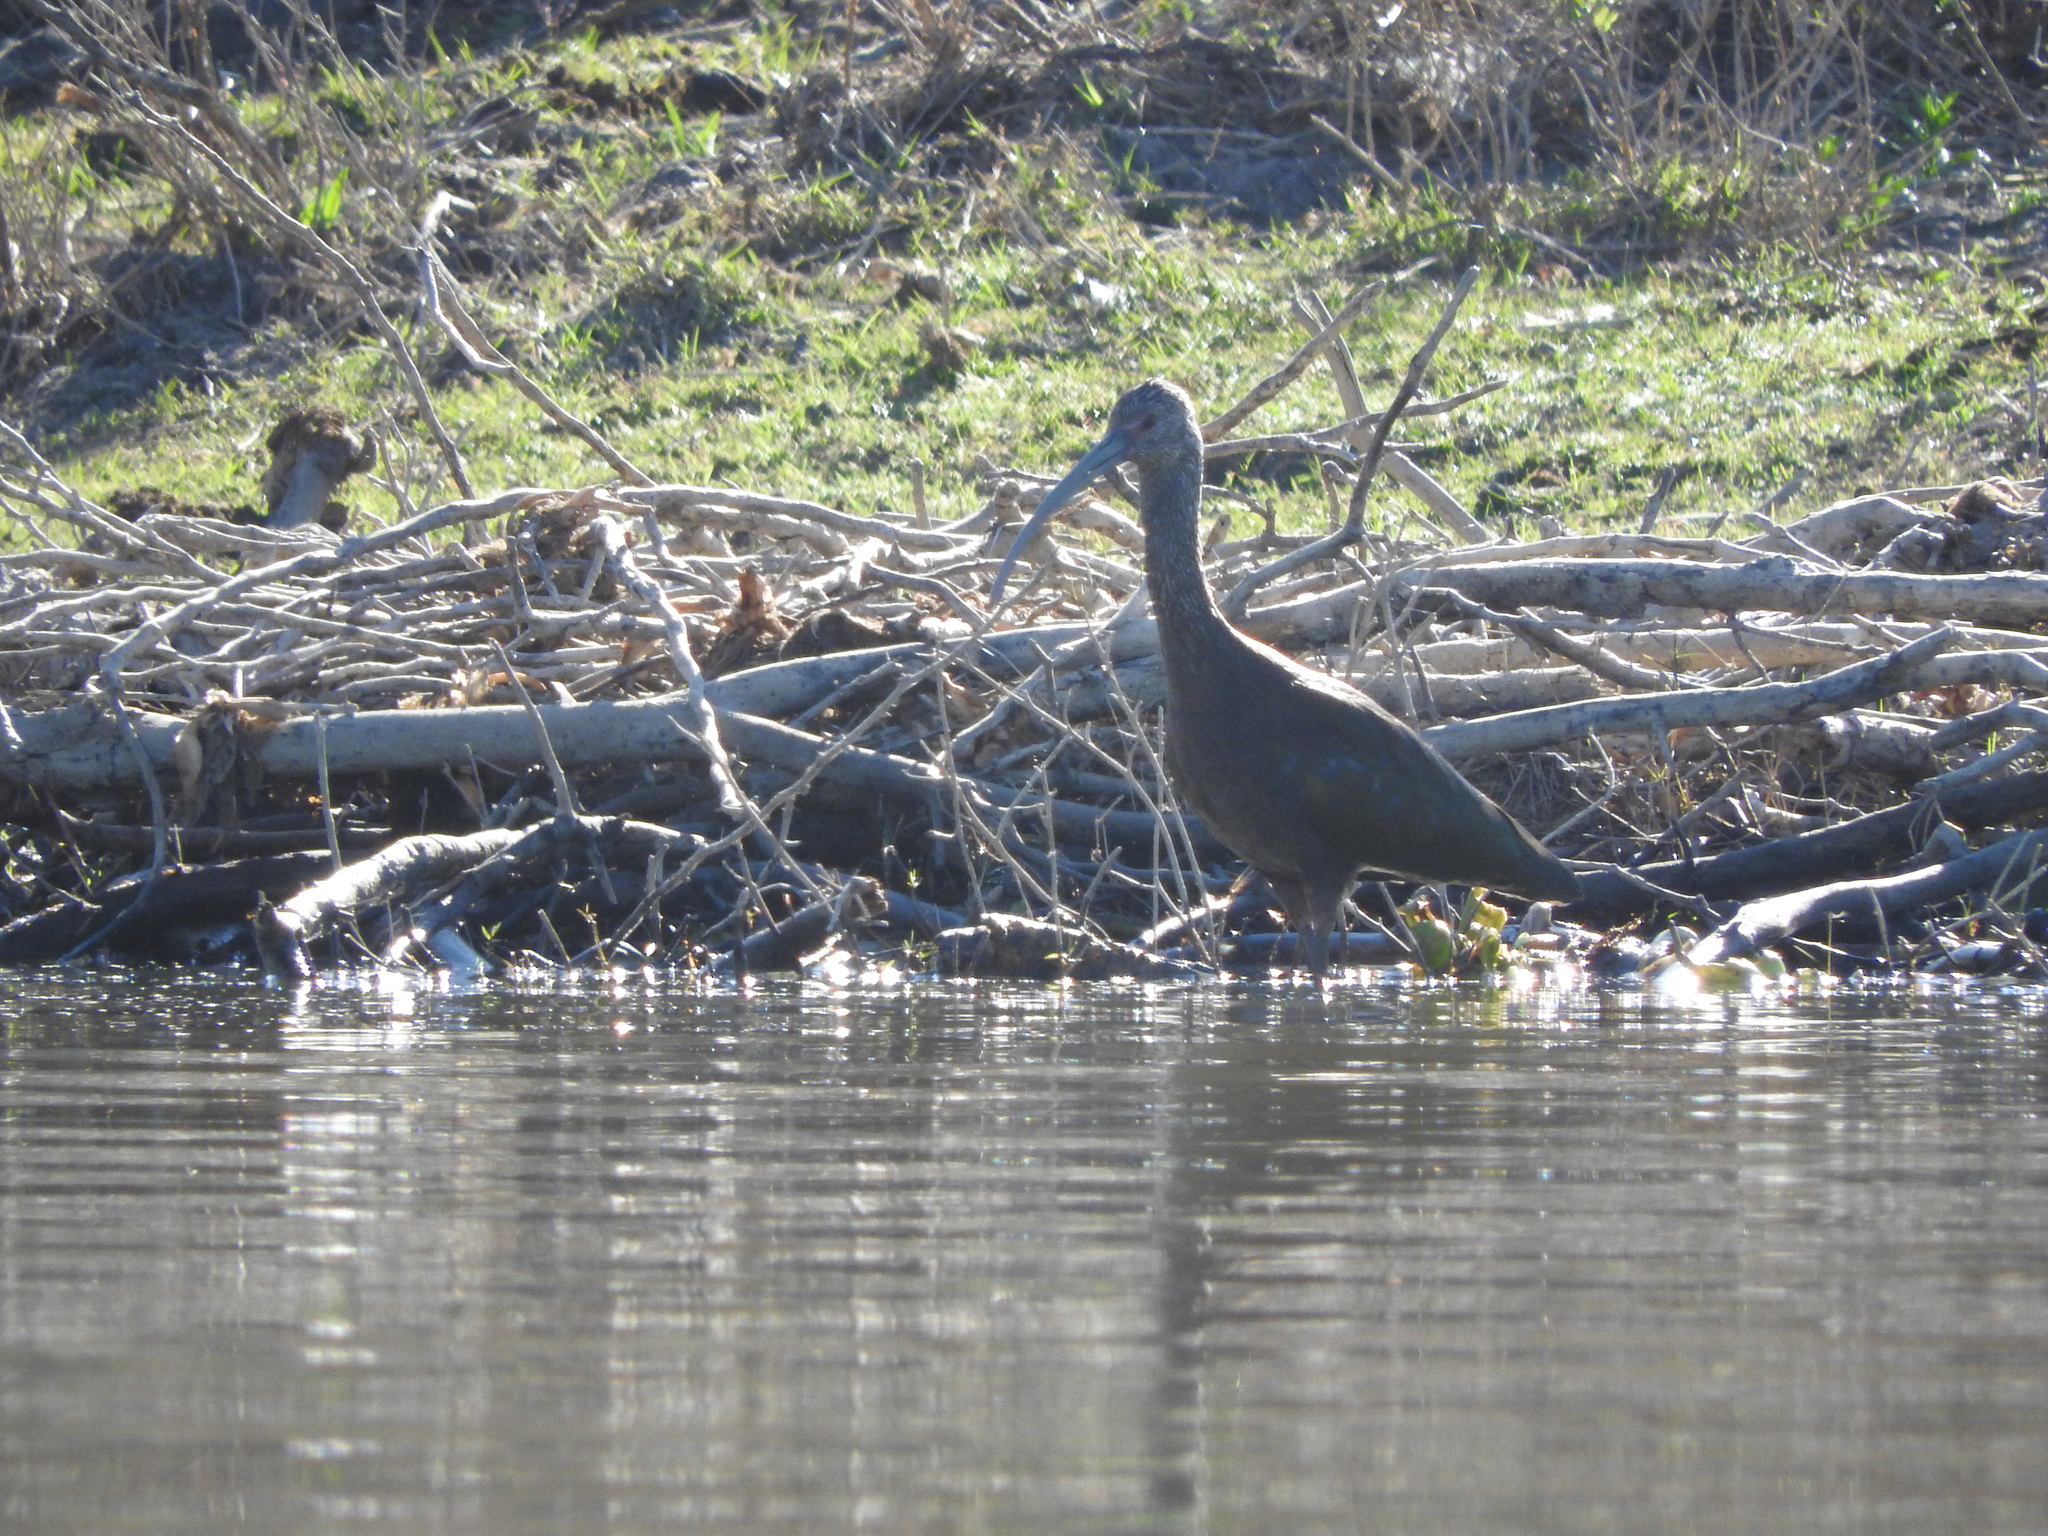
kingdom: Animalia
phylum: Chordata
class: Aves
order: Pelecaniformes
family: Threskiornithidae
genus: Plegadis
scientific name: Plegadis chihi
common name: White-faced ibis
